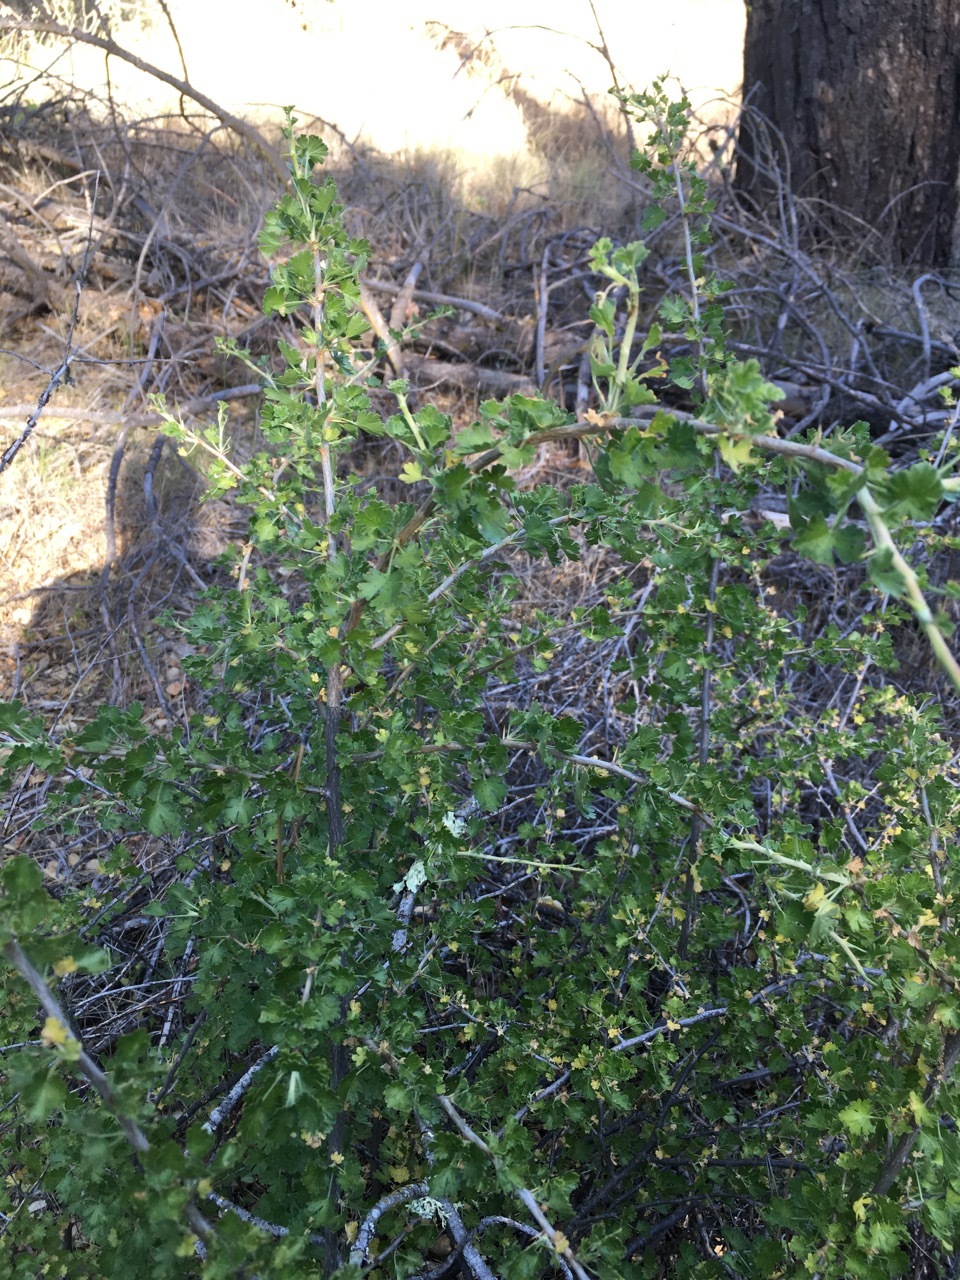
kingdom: Plantae
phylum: Tracheophyta
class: Magnoliopsida
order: Saxifragales
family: Grossulariaceae
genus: Ribes
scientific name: Ribes quercetorum
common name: Oak gooseberry
